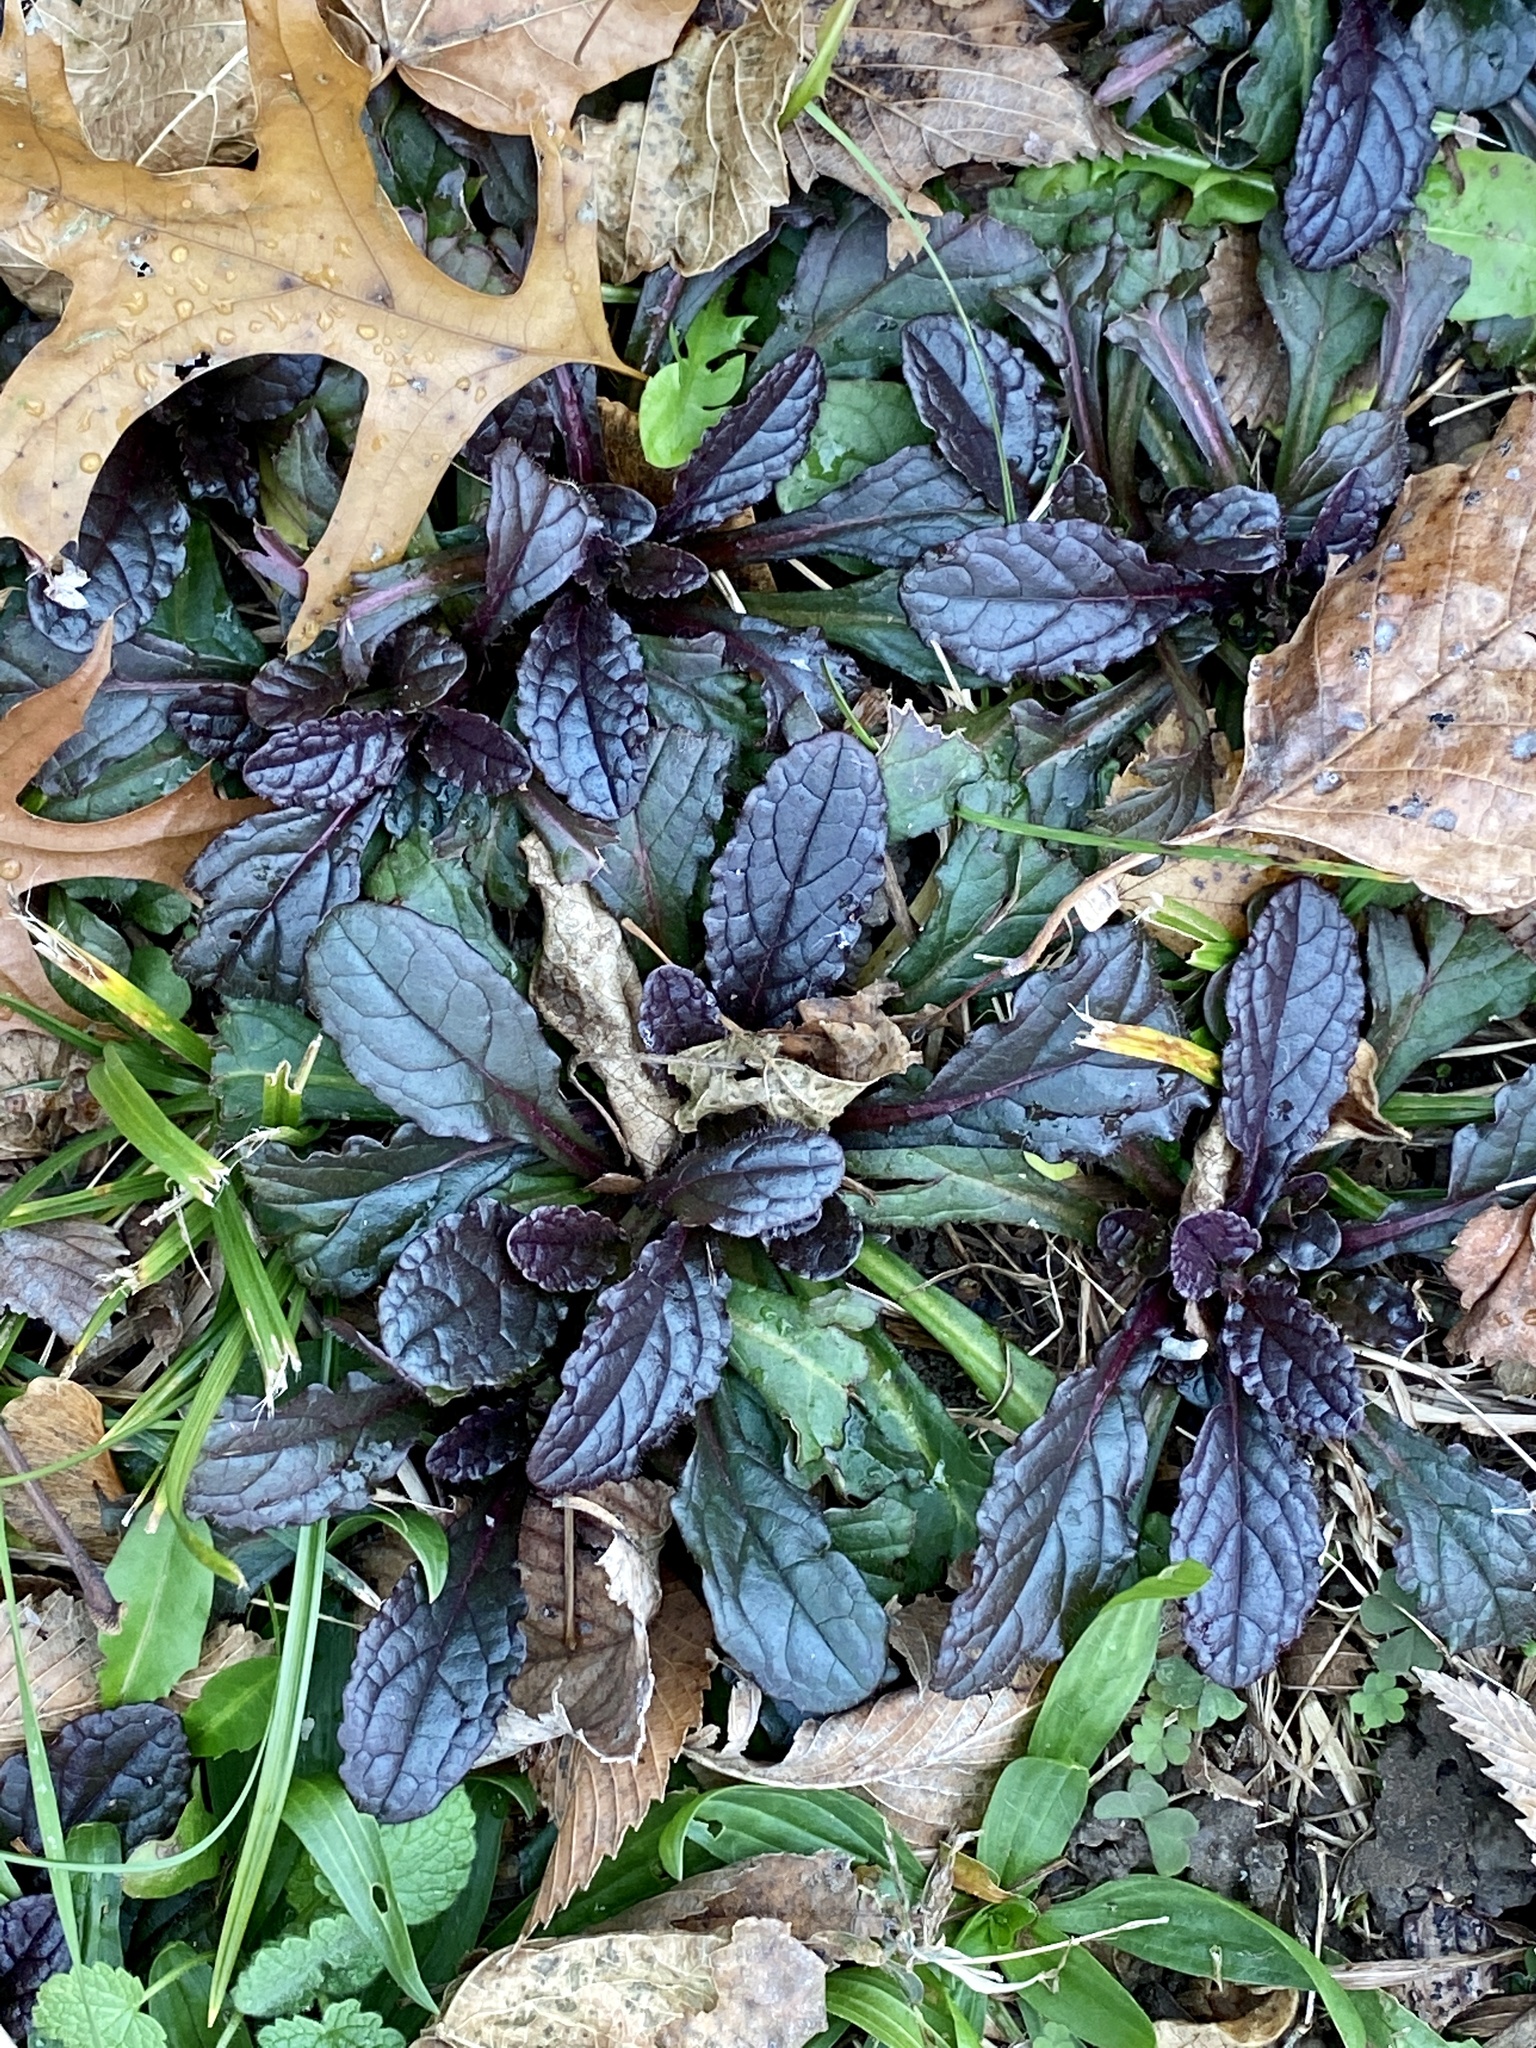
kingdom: Plantae
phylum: Tracheophyta
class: Magnoliopsida
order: Lamiales
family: Lamiaceae
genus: Ajuga
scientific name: Ajuga reptans
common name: Bugle
